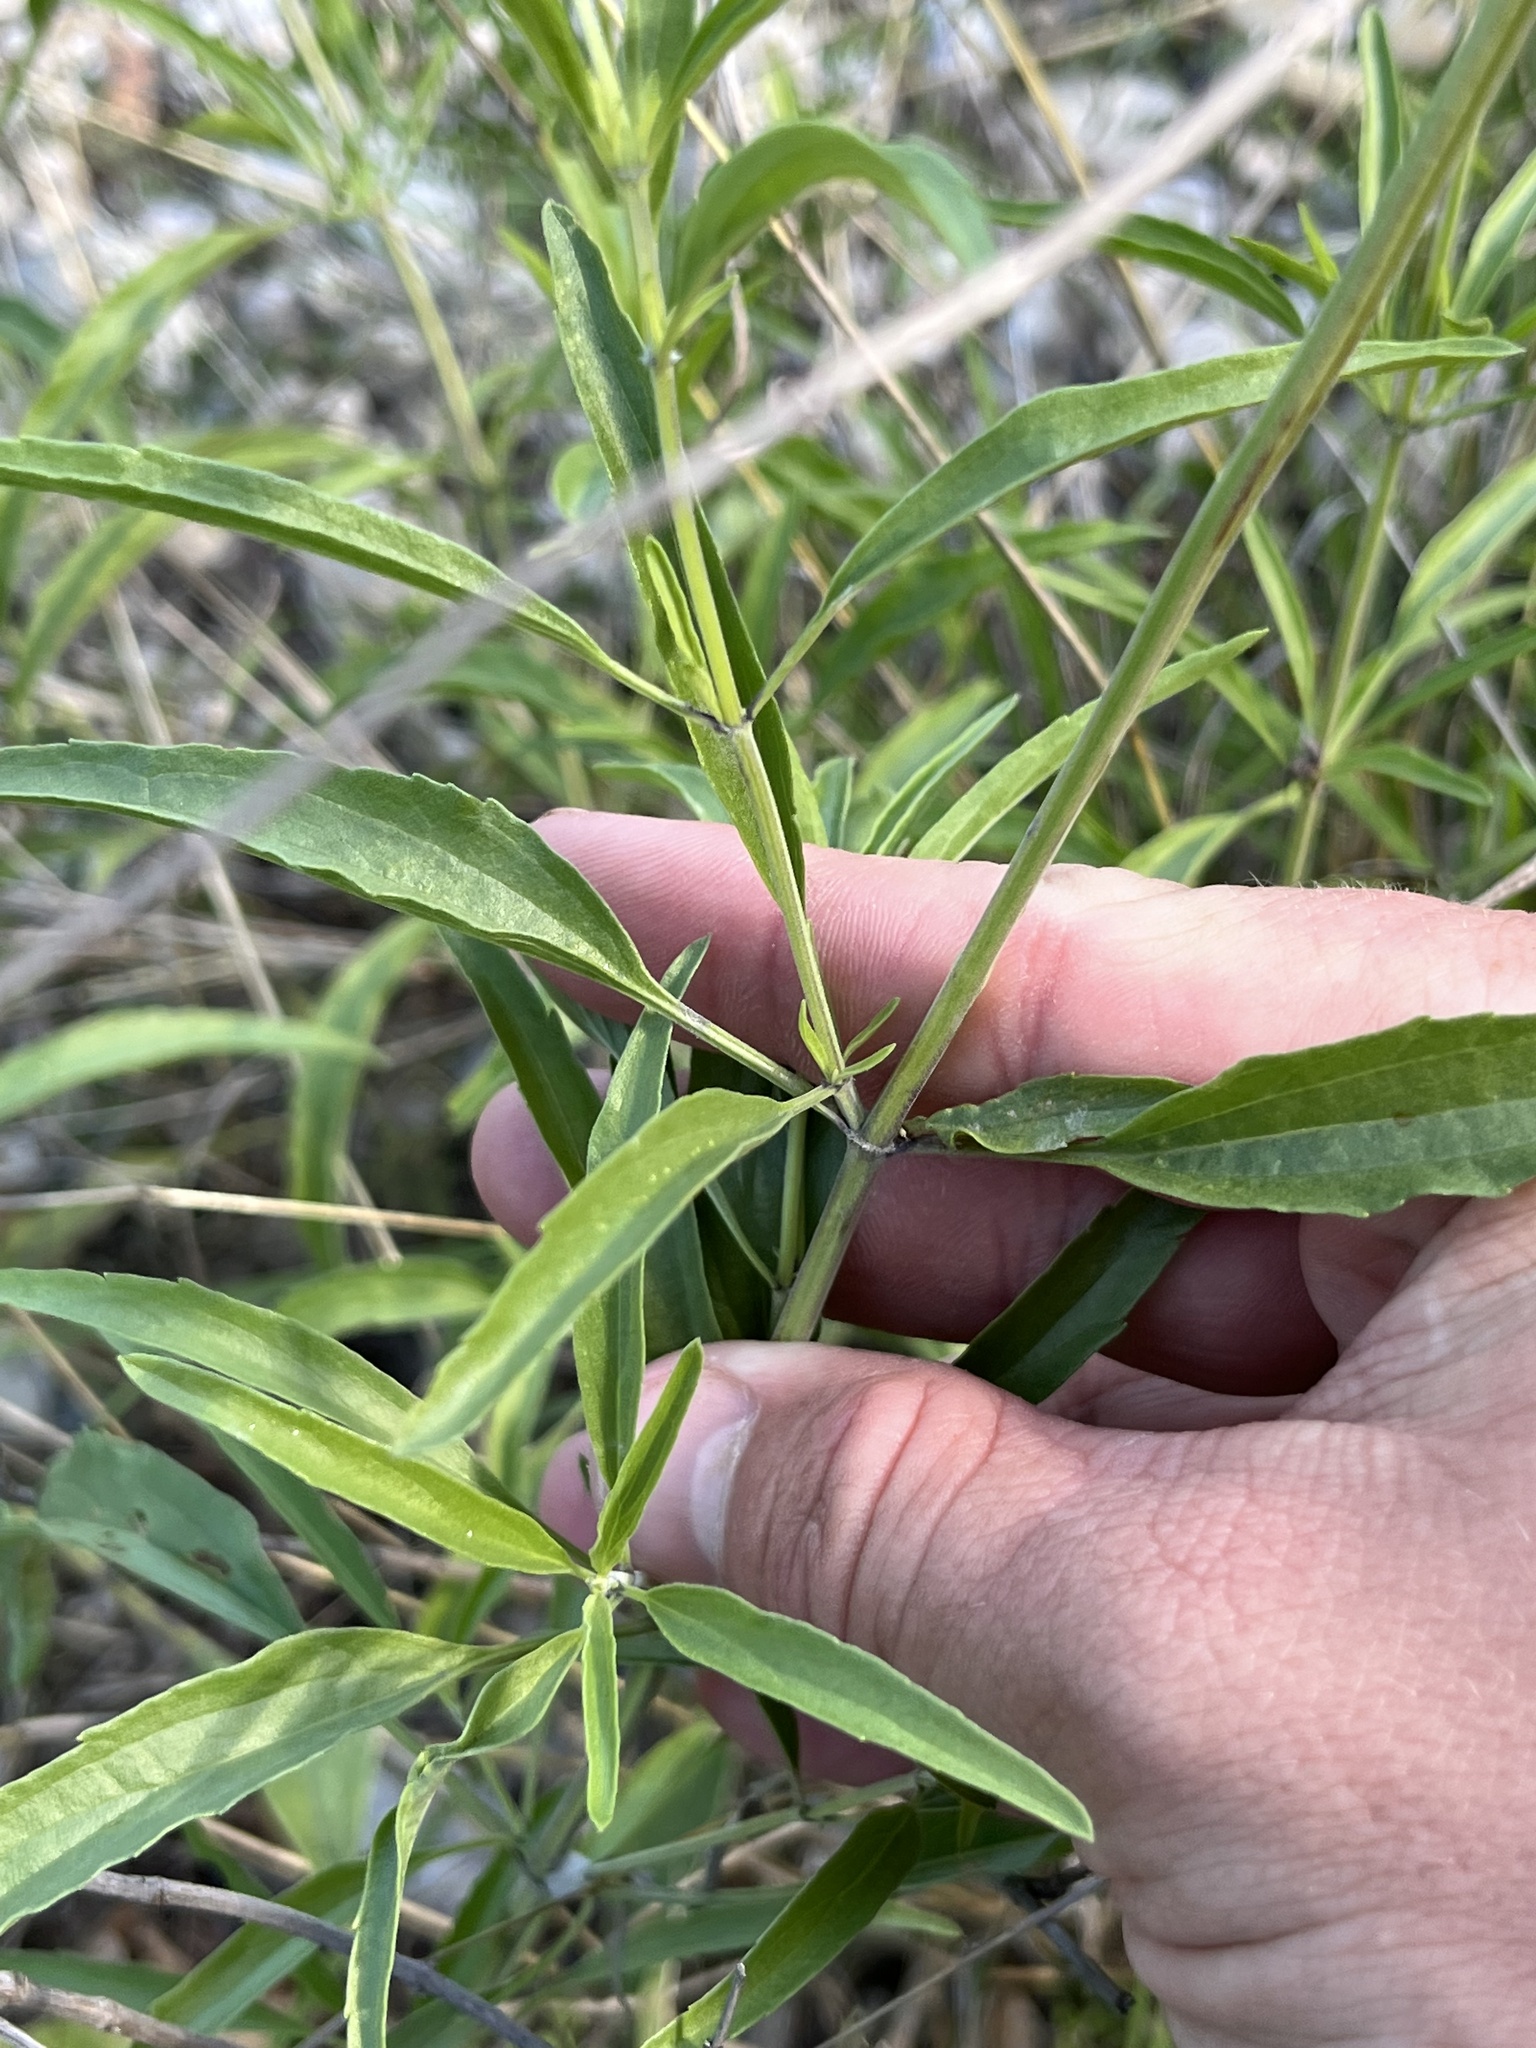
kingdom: Plantae
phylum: Tracheophyta
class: Magnoliopsida
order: Lamiales
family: Lamiaceae
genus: Salvia
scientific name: Salvia farinacea
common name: Mealy sage
